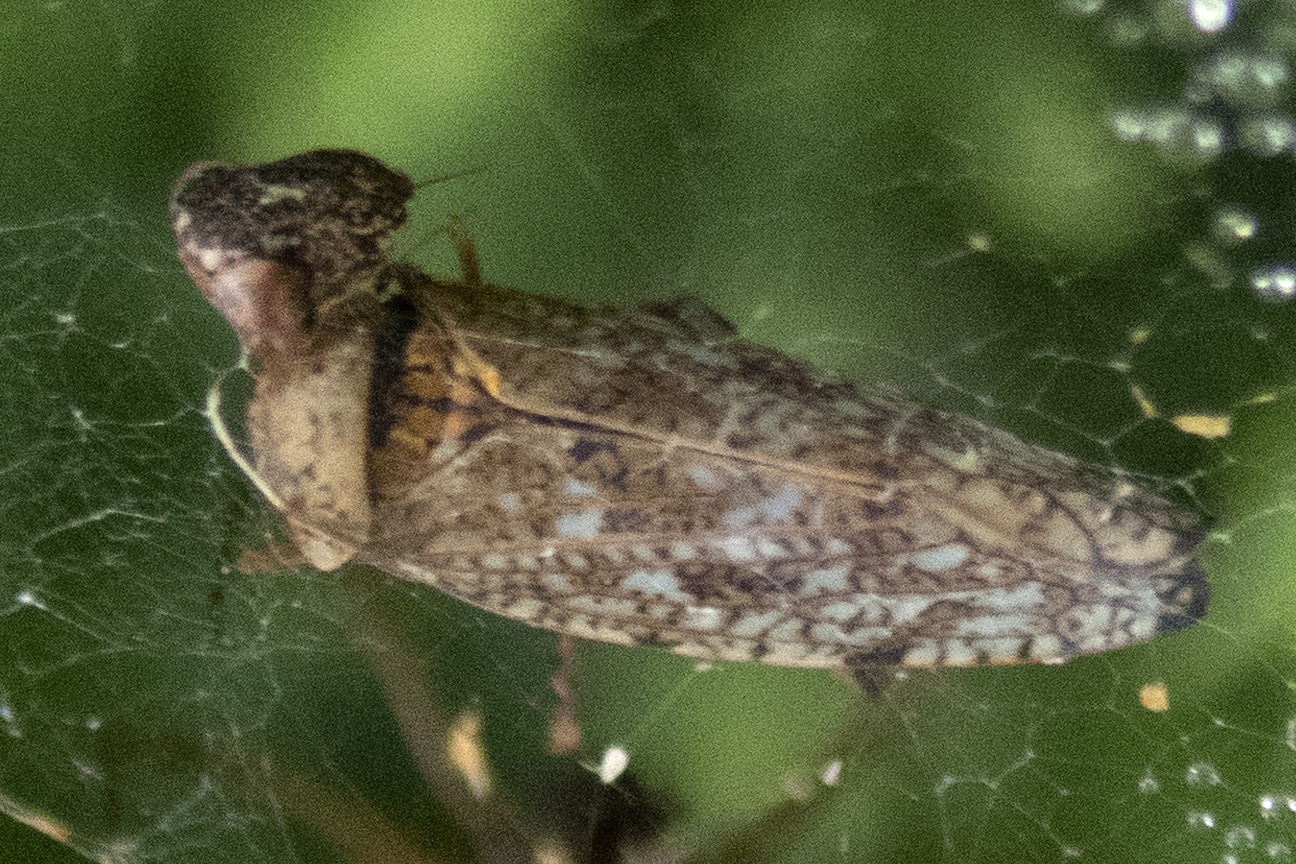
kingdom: Animalia
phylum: Arthropoda
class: Insecta
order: Hemiptera
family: Cicadellidae
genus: Orientus
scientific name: Orientus ishidae
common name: Japanese leafhopper
